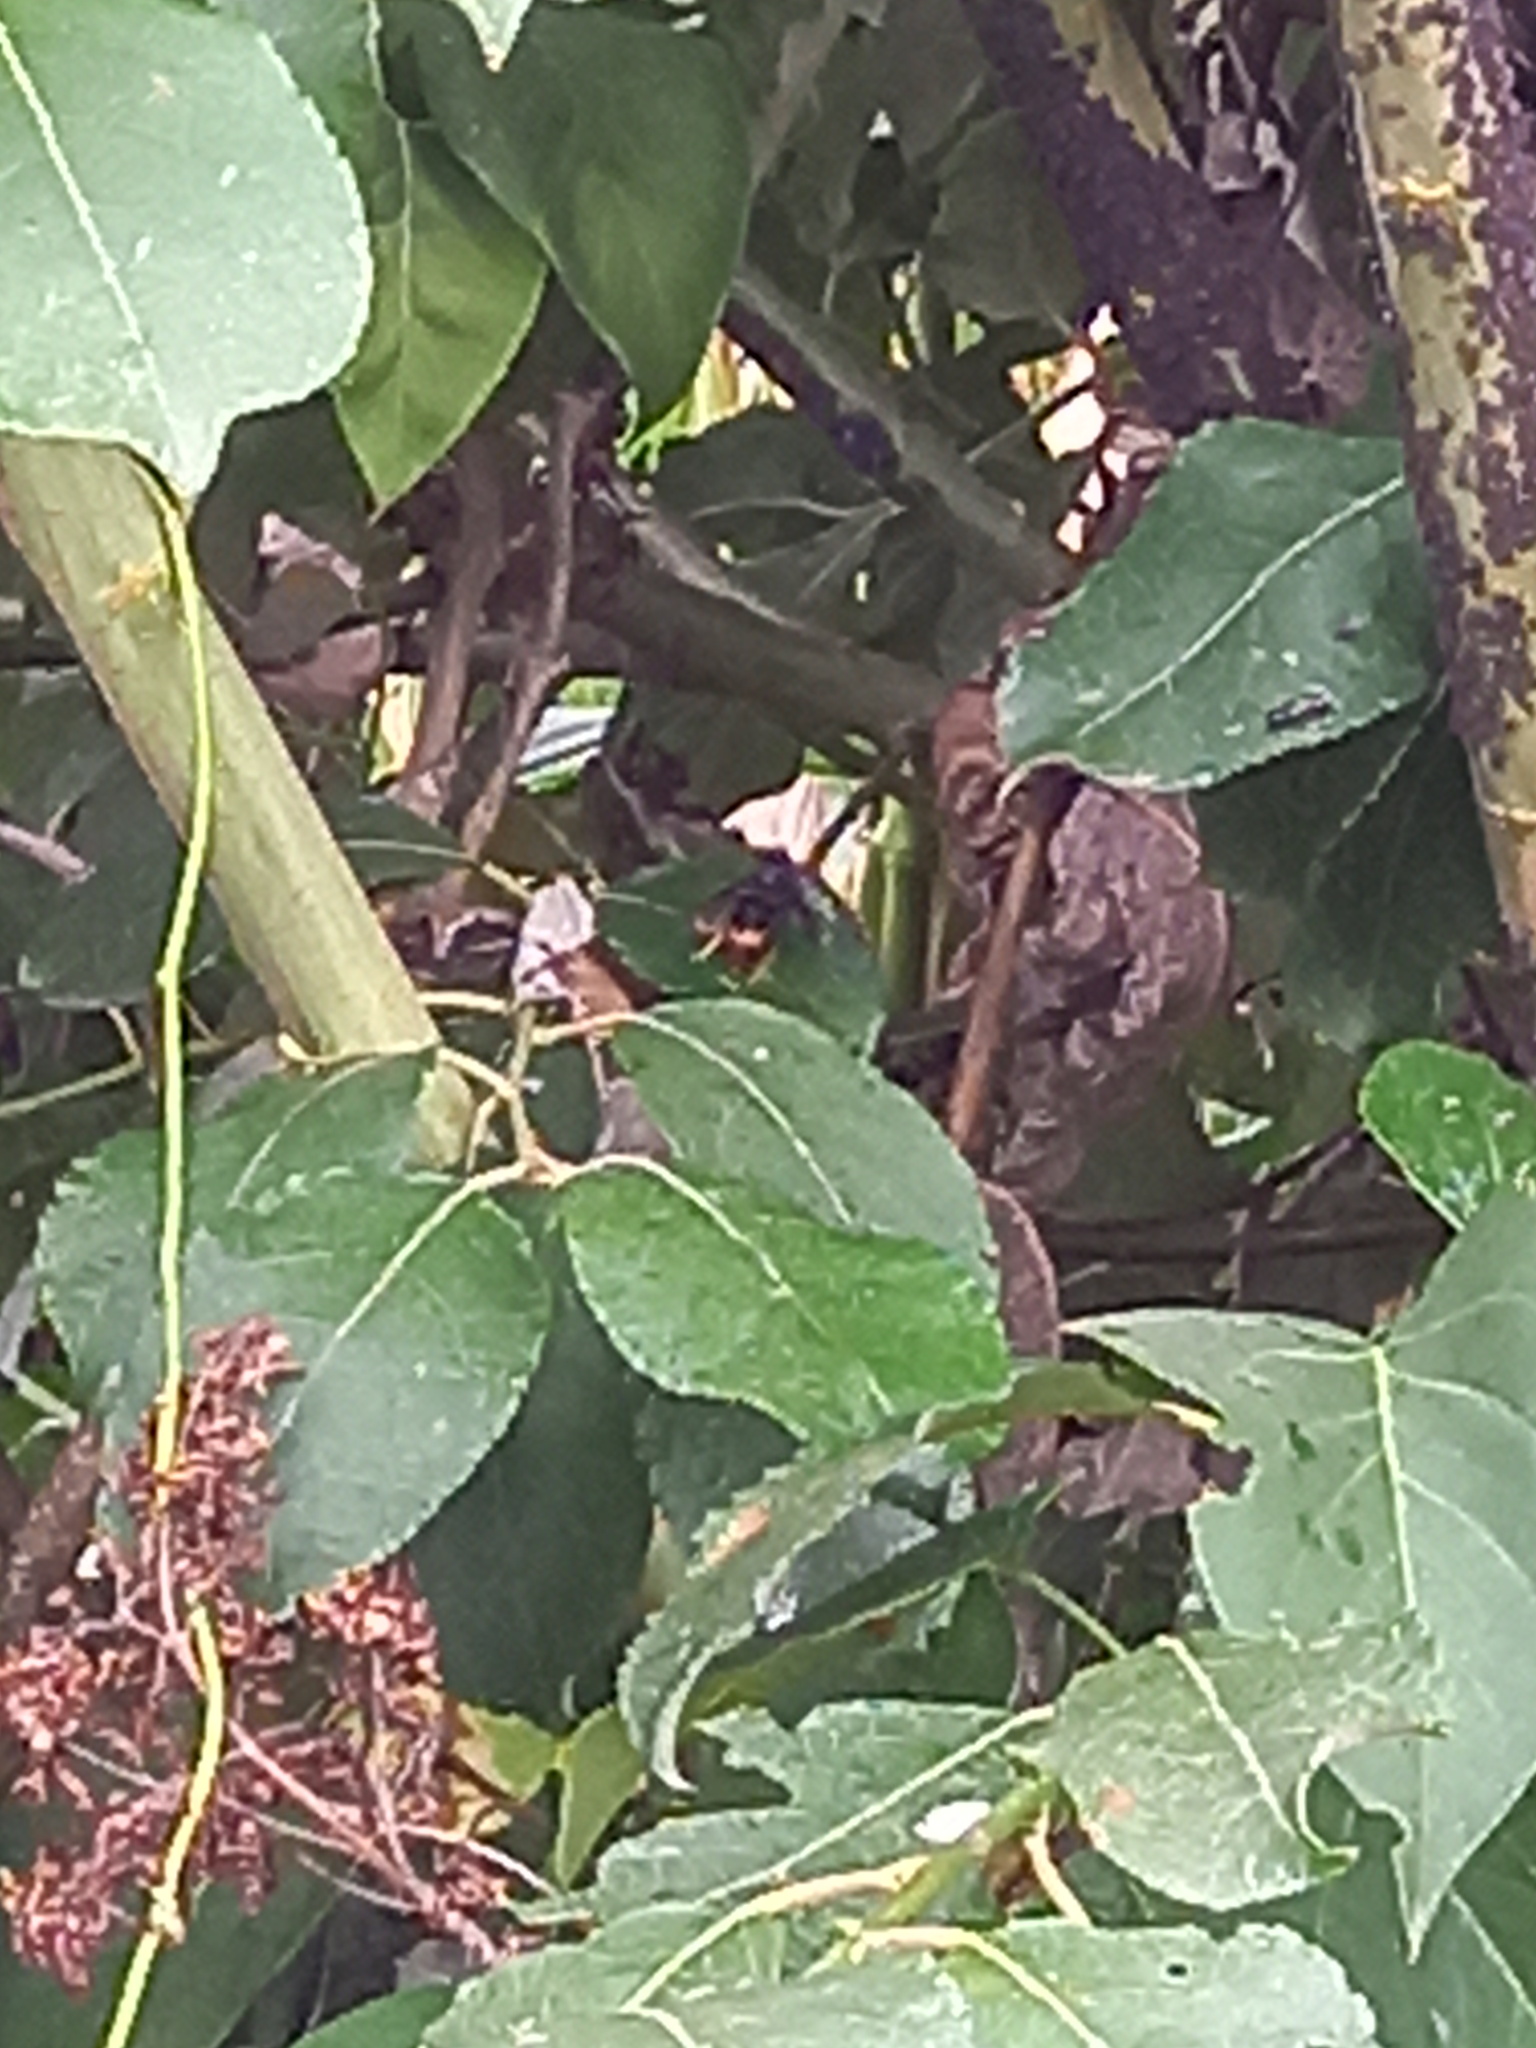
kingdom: Animalia
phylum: Arthropoda
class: Insecta
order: Hymenoptera
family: Vespidae
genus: Vespa
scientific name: Vespa velutina
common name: Asian hornet
